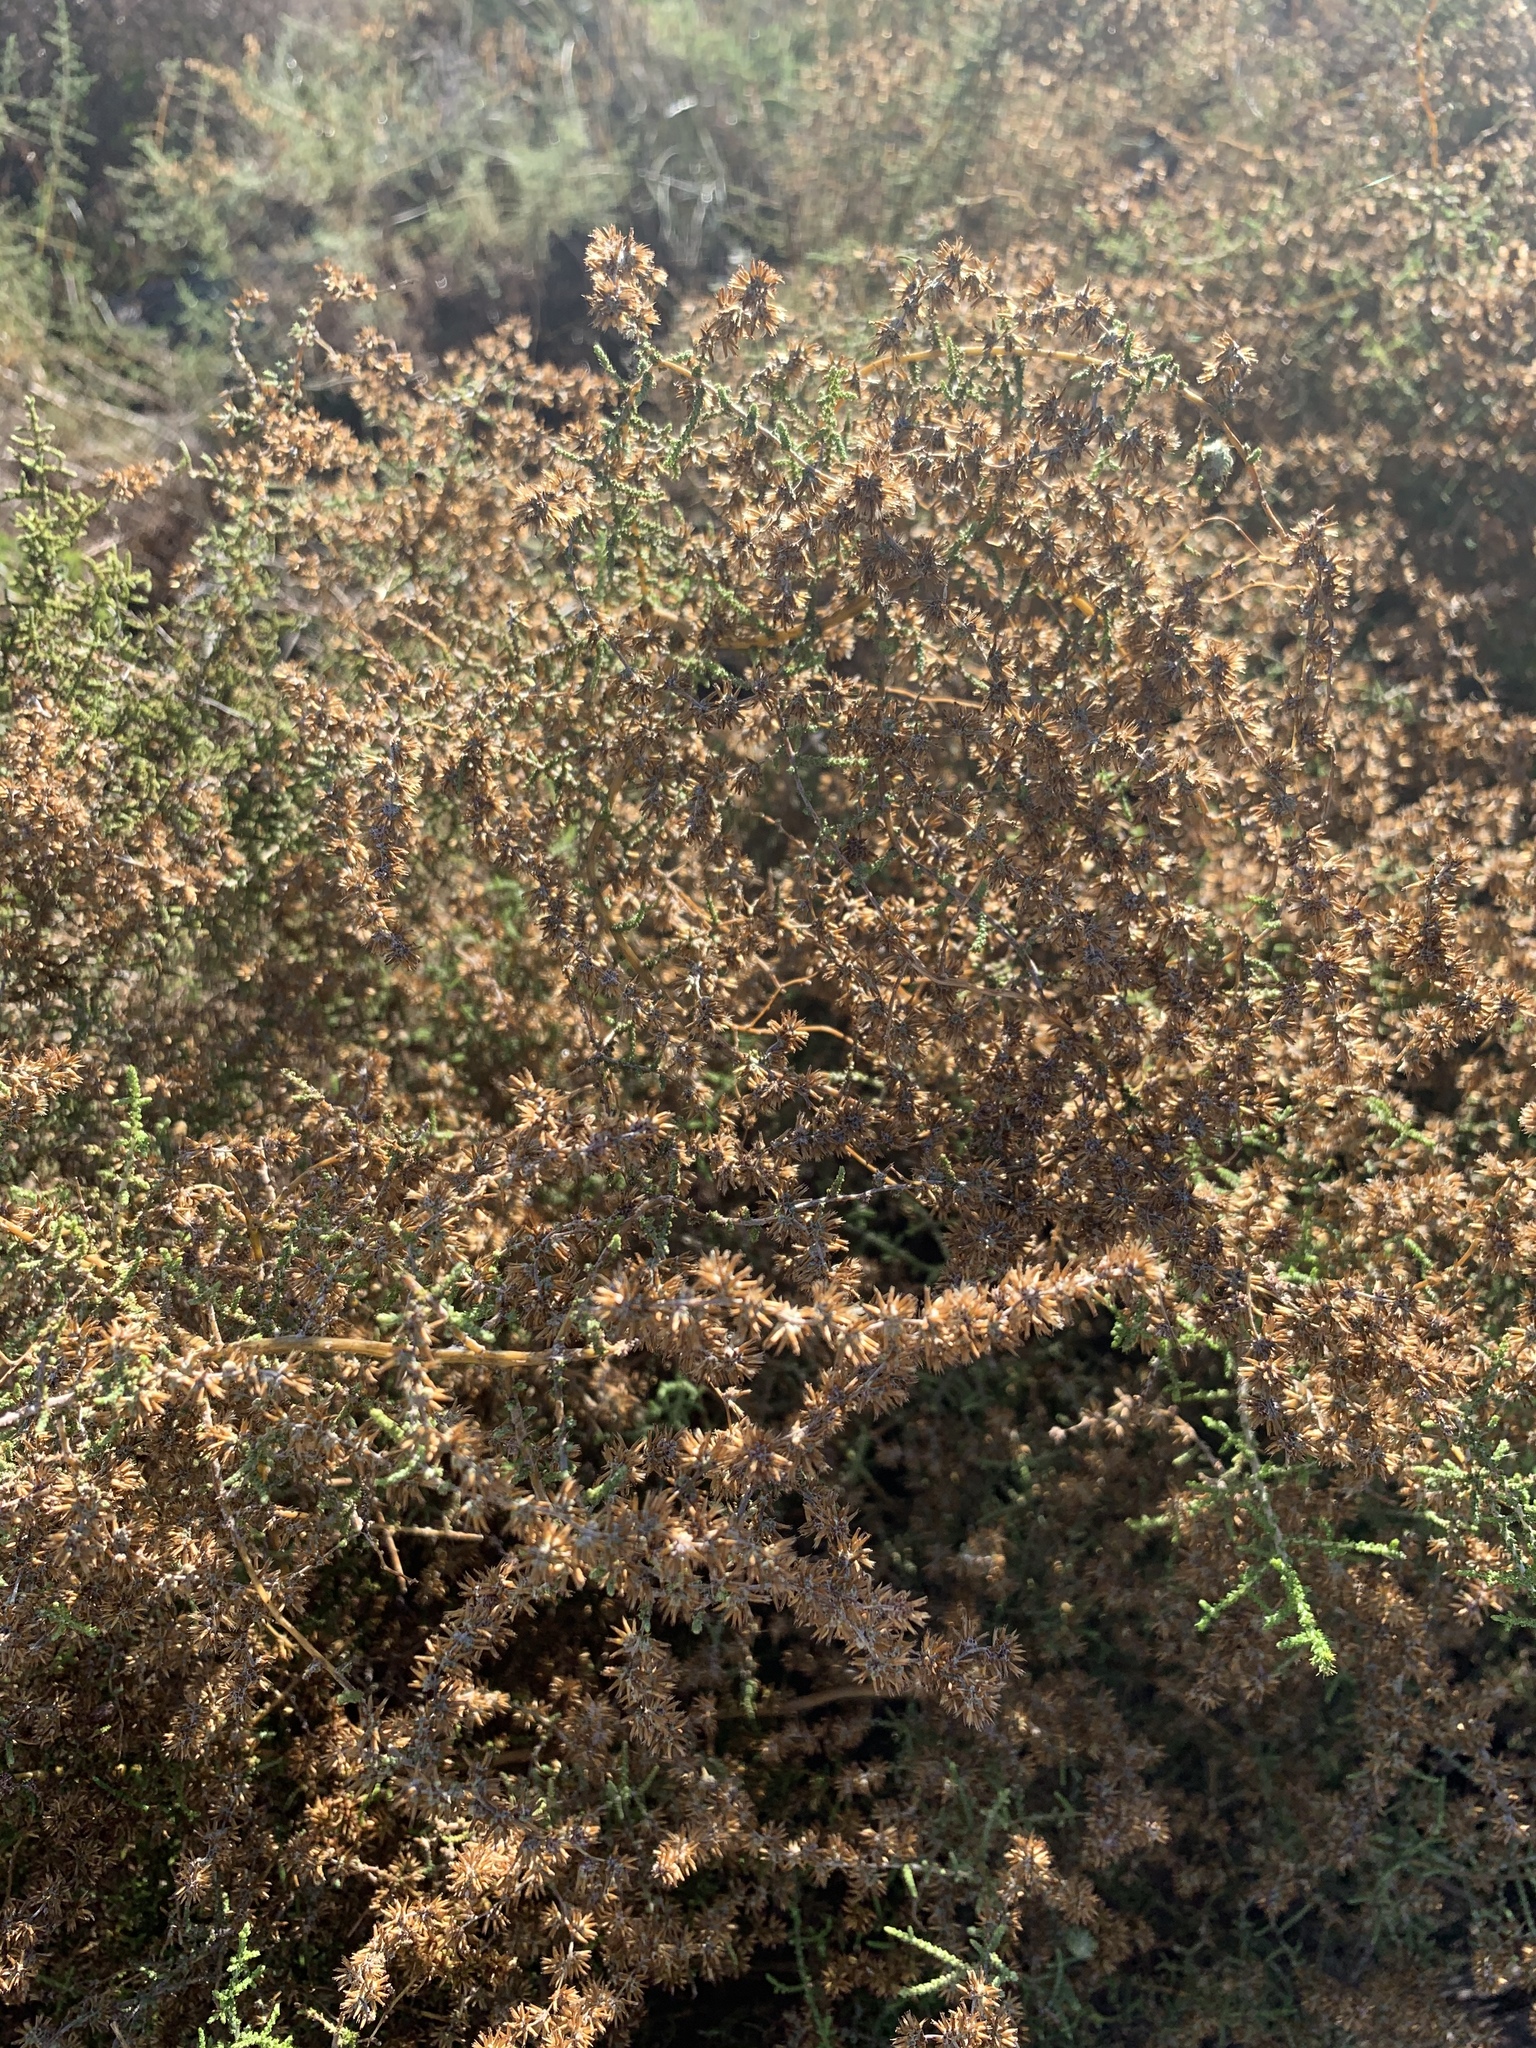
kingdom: Plantae
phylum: Tracheophyta
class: Magnoliopsida
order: Asterales
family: Asteraceae
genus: Seriphium
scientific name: Seriphium plumosum
